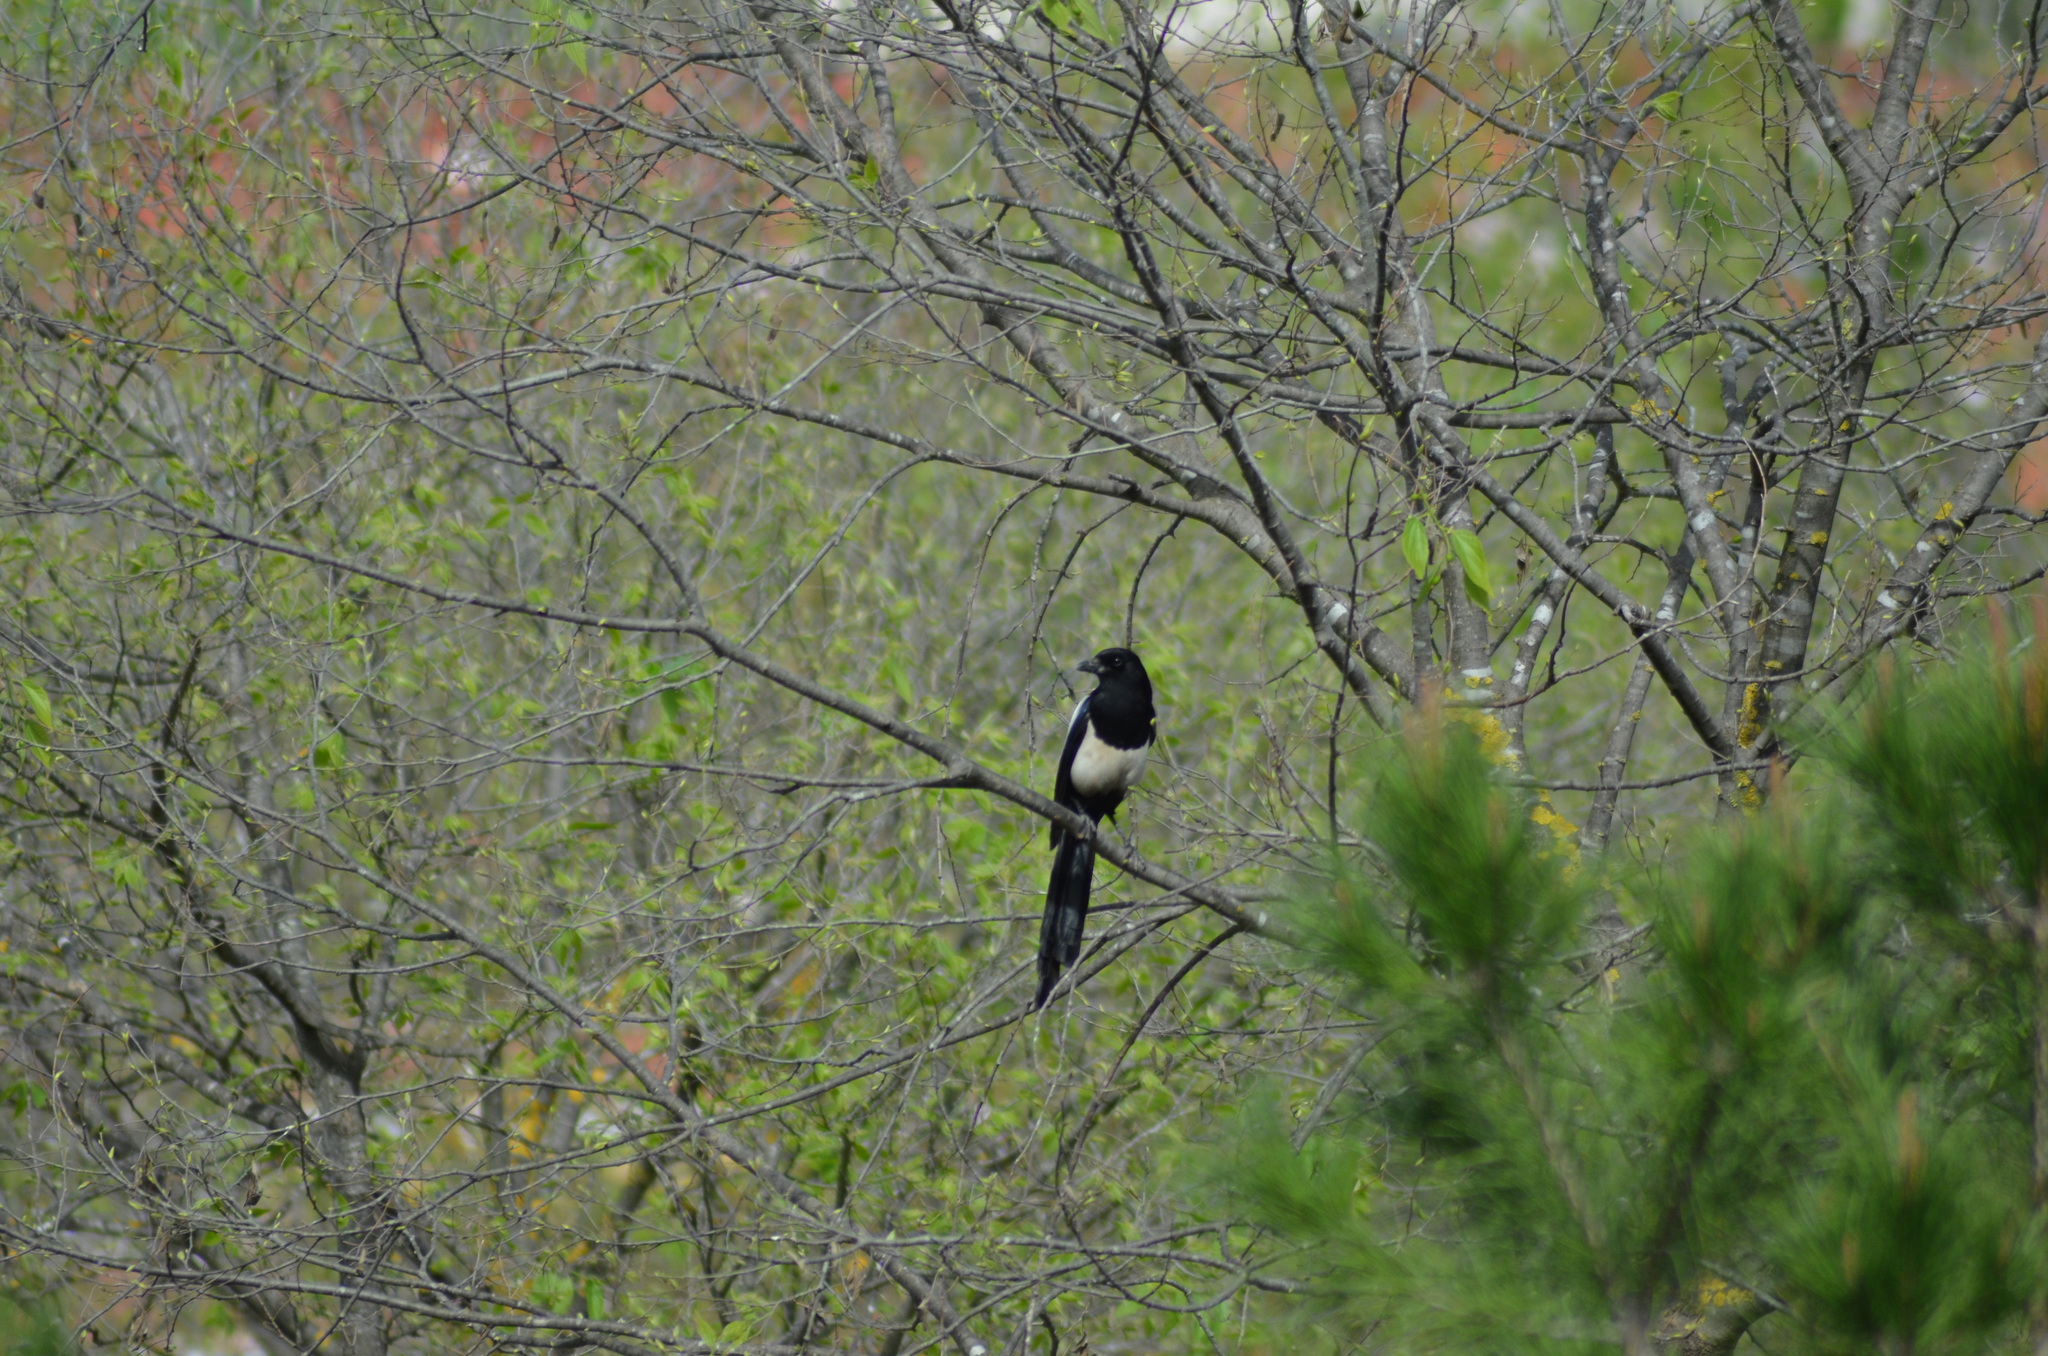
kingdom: Animalia
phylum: Chordata
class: Aves
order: Passeriformes
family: Corvidae
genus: Pica
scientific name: Pica pica
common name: Eurasian magpie
